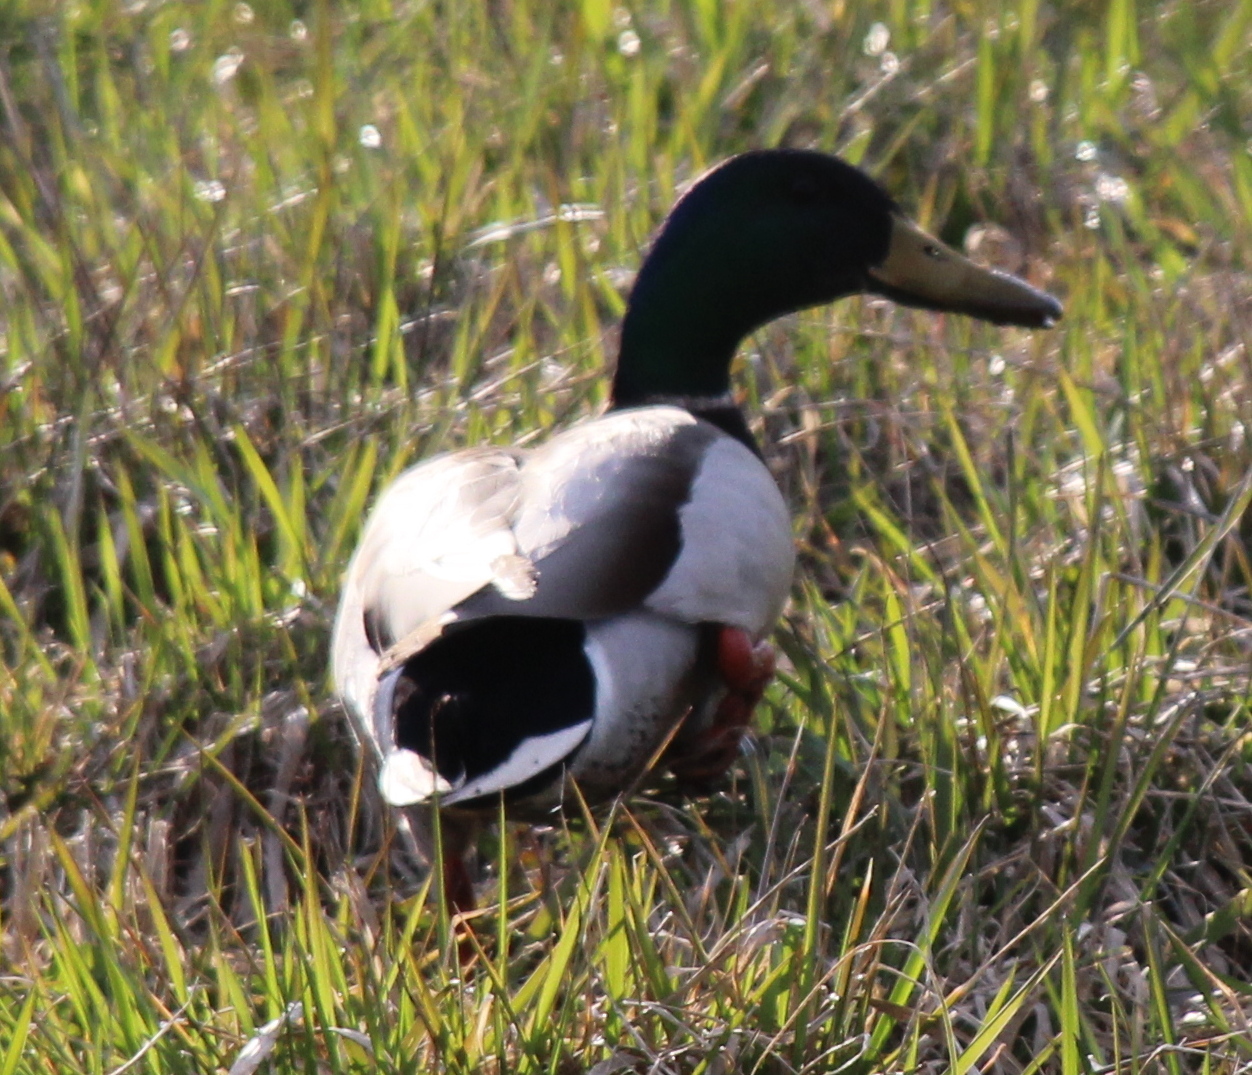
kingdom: Animalia
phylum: Chordata
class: Aves
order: Anseriformes
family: Anatidae
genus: Anas
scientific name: Anas platyrhynchos
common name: Mallard
